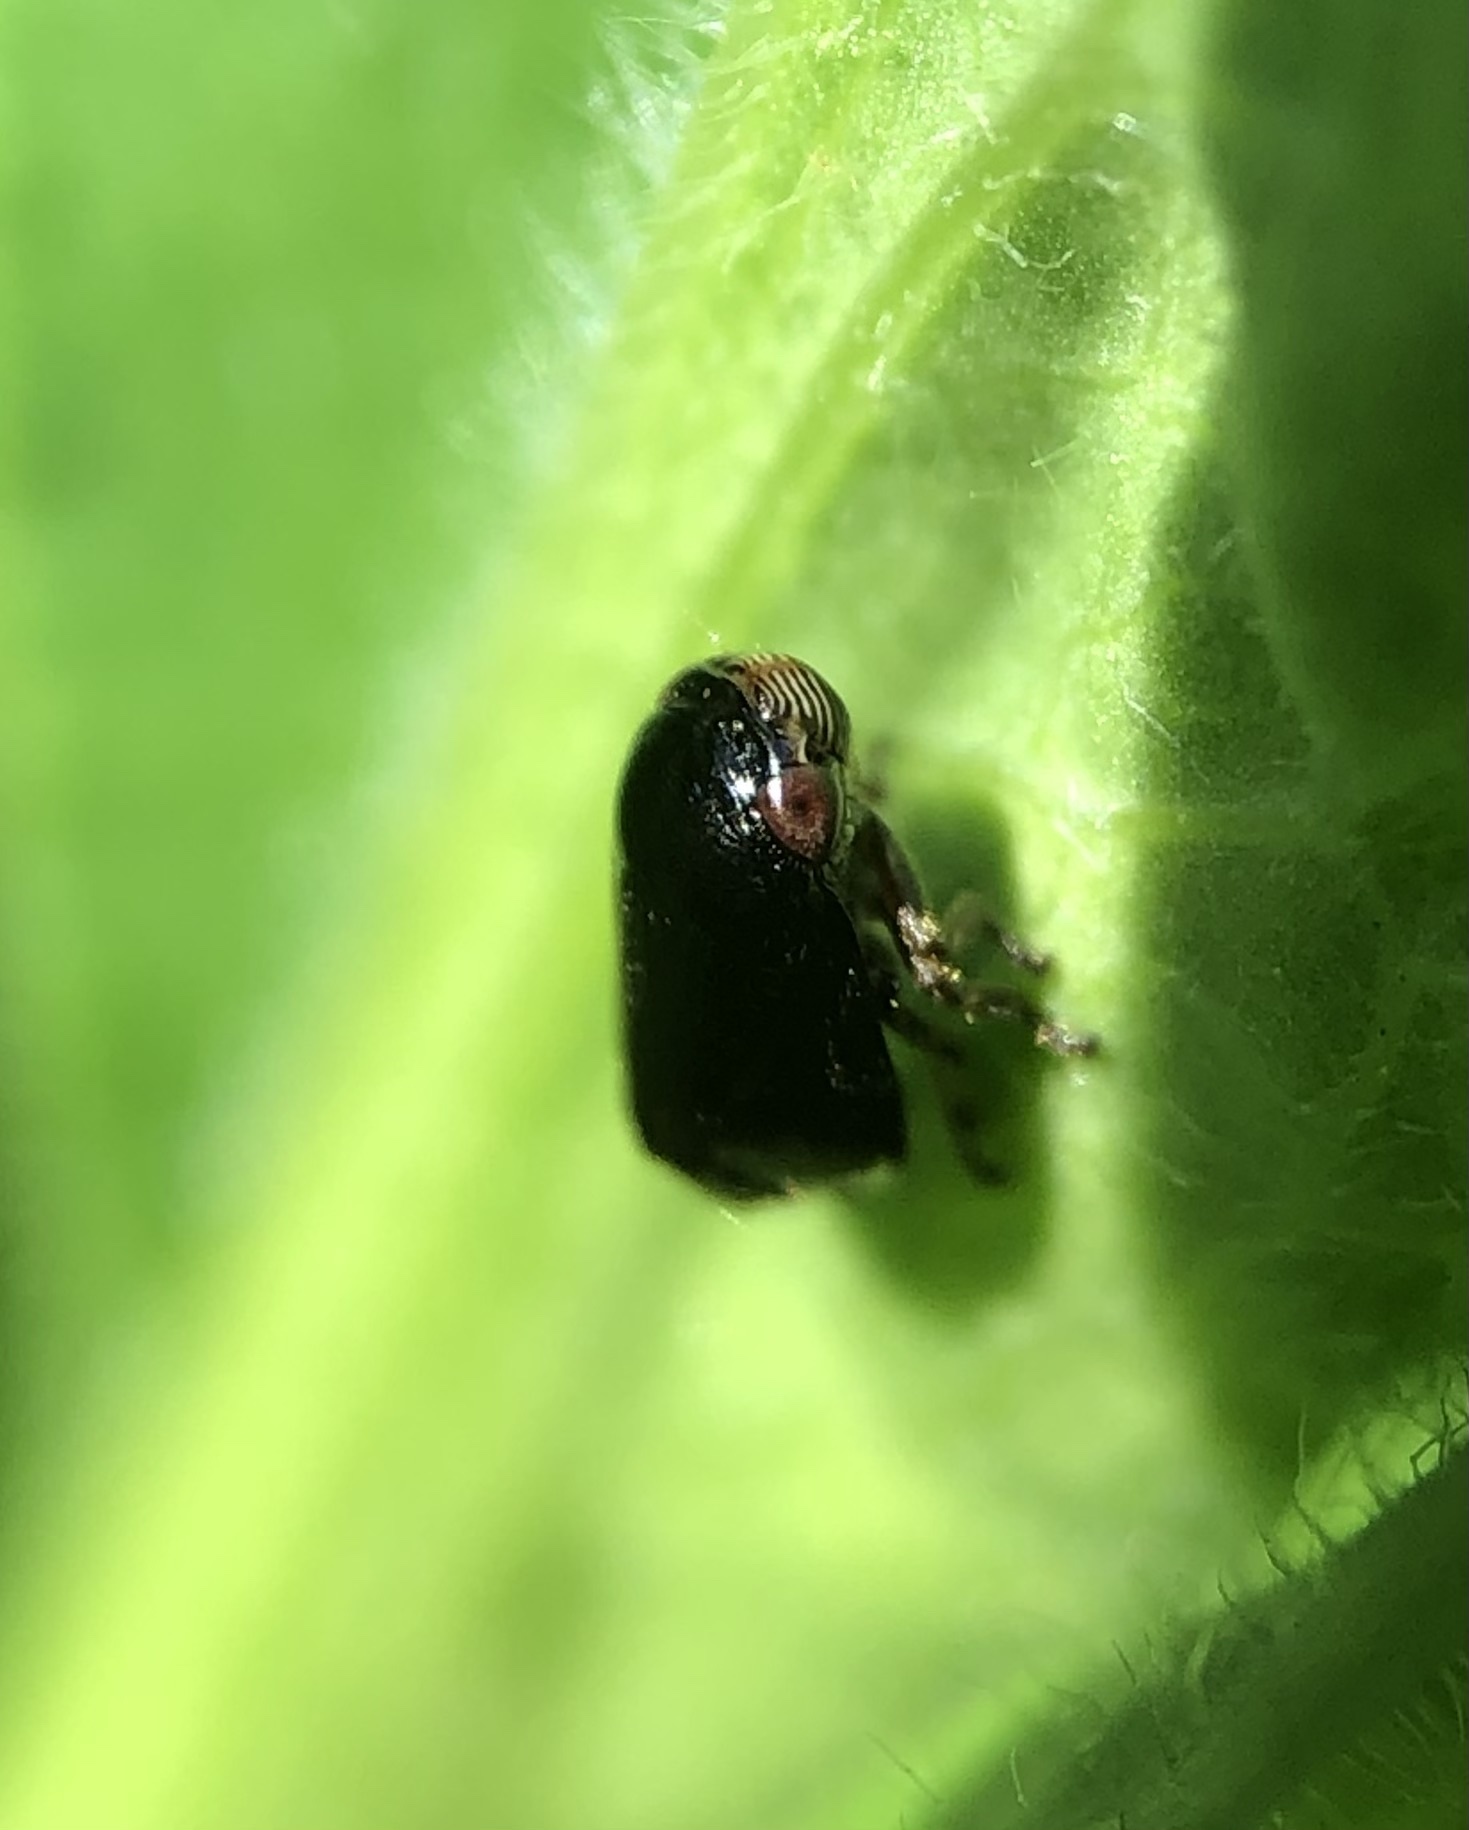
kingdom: Animalia
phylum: Arthropoda
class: Insecta
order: Hemiptera
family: Clastopteridae
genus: Clastoptera
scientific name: Clastoptera xanthocephala
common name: Sunflower spittlebug
